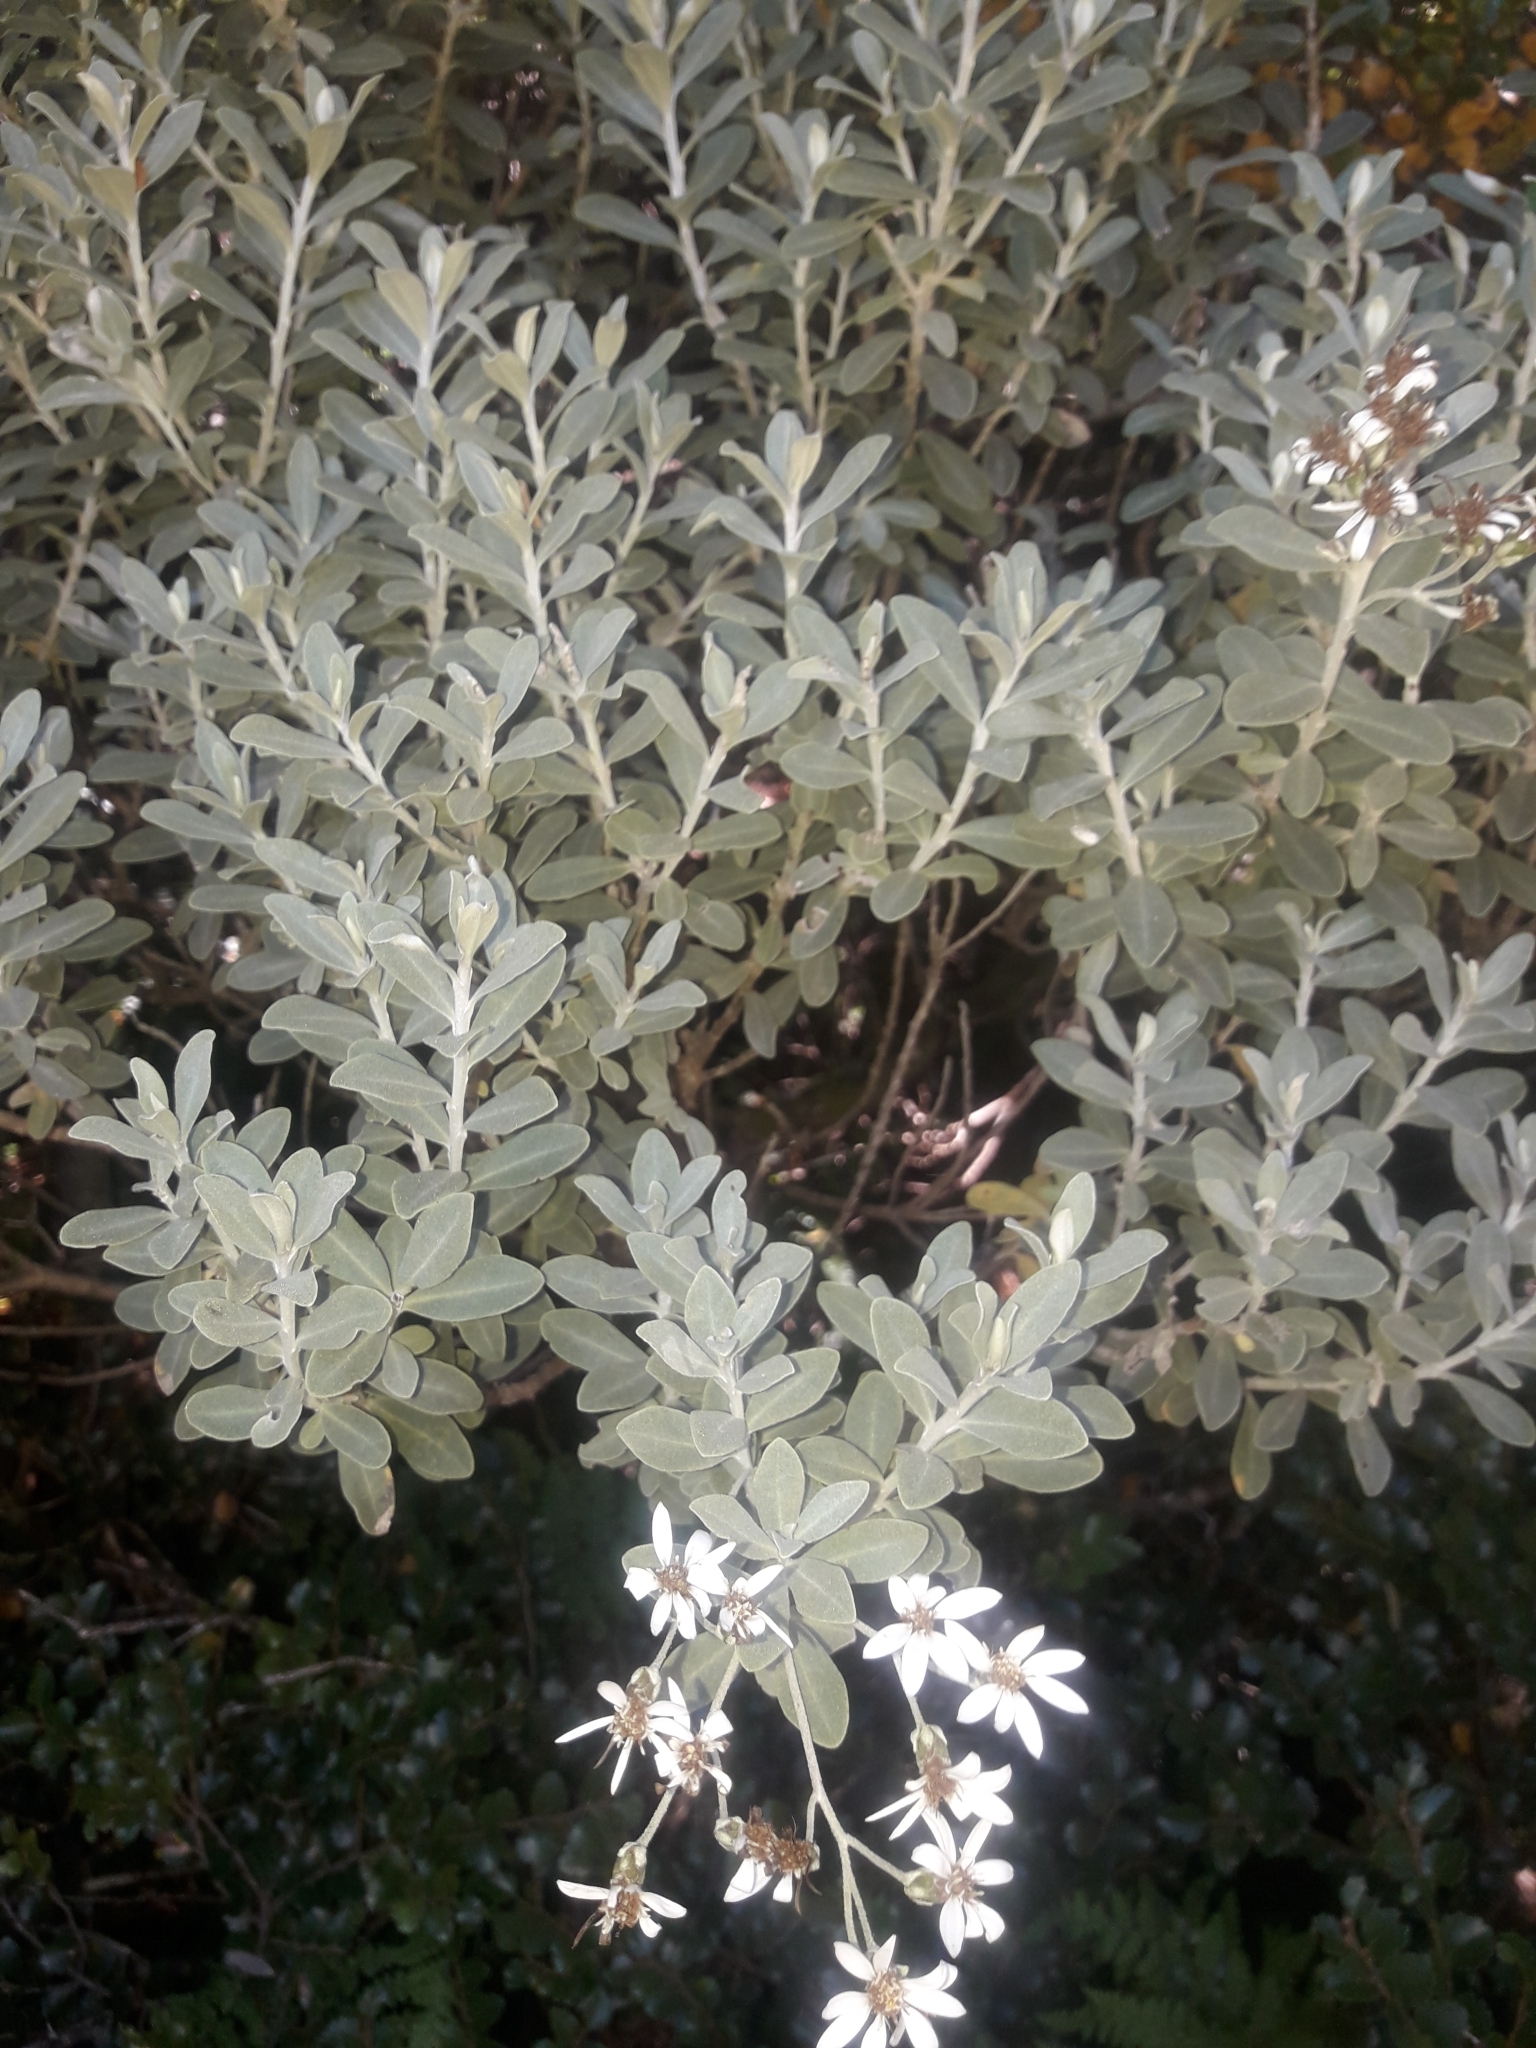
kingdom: Plantae
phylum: Tracheophyta
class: Magnoliopsida
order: Asterales
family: Asteraceae
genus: Olearia
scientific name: Olearia moschata
